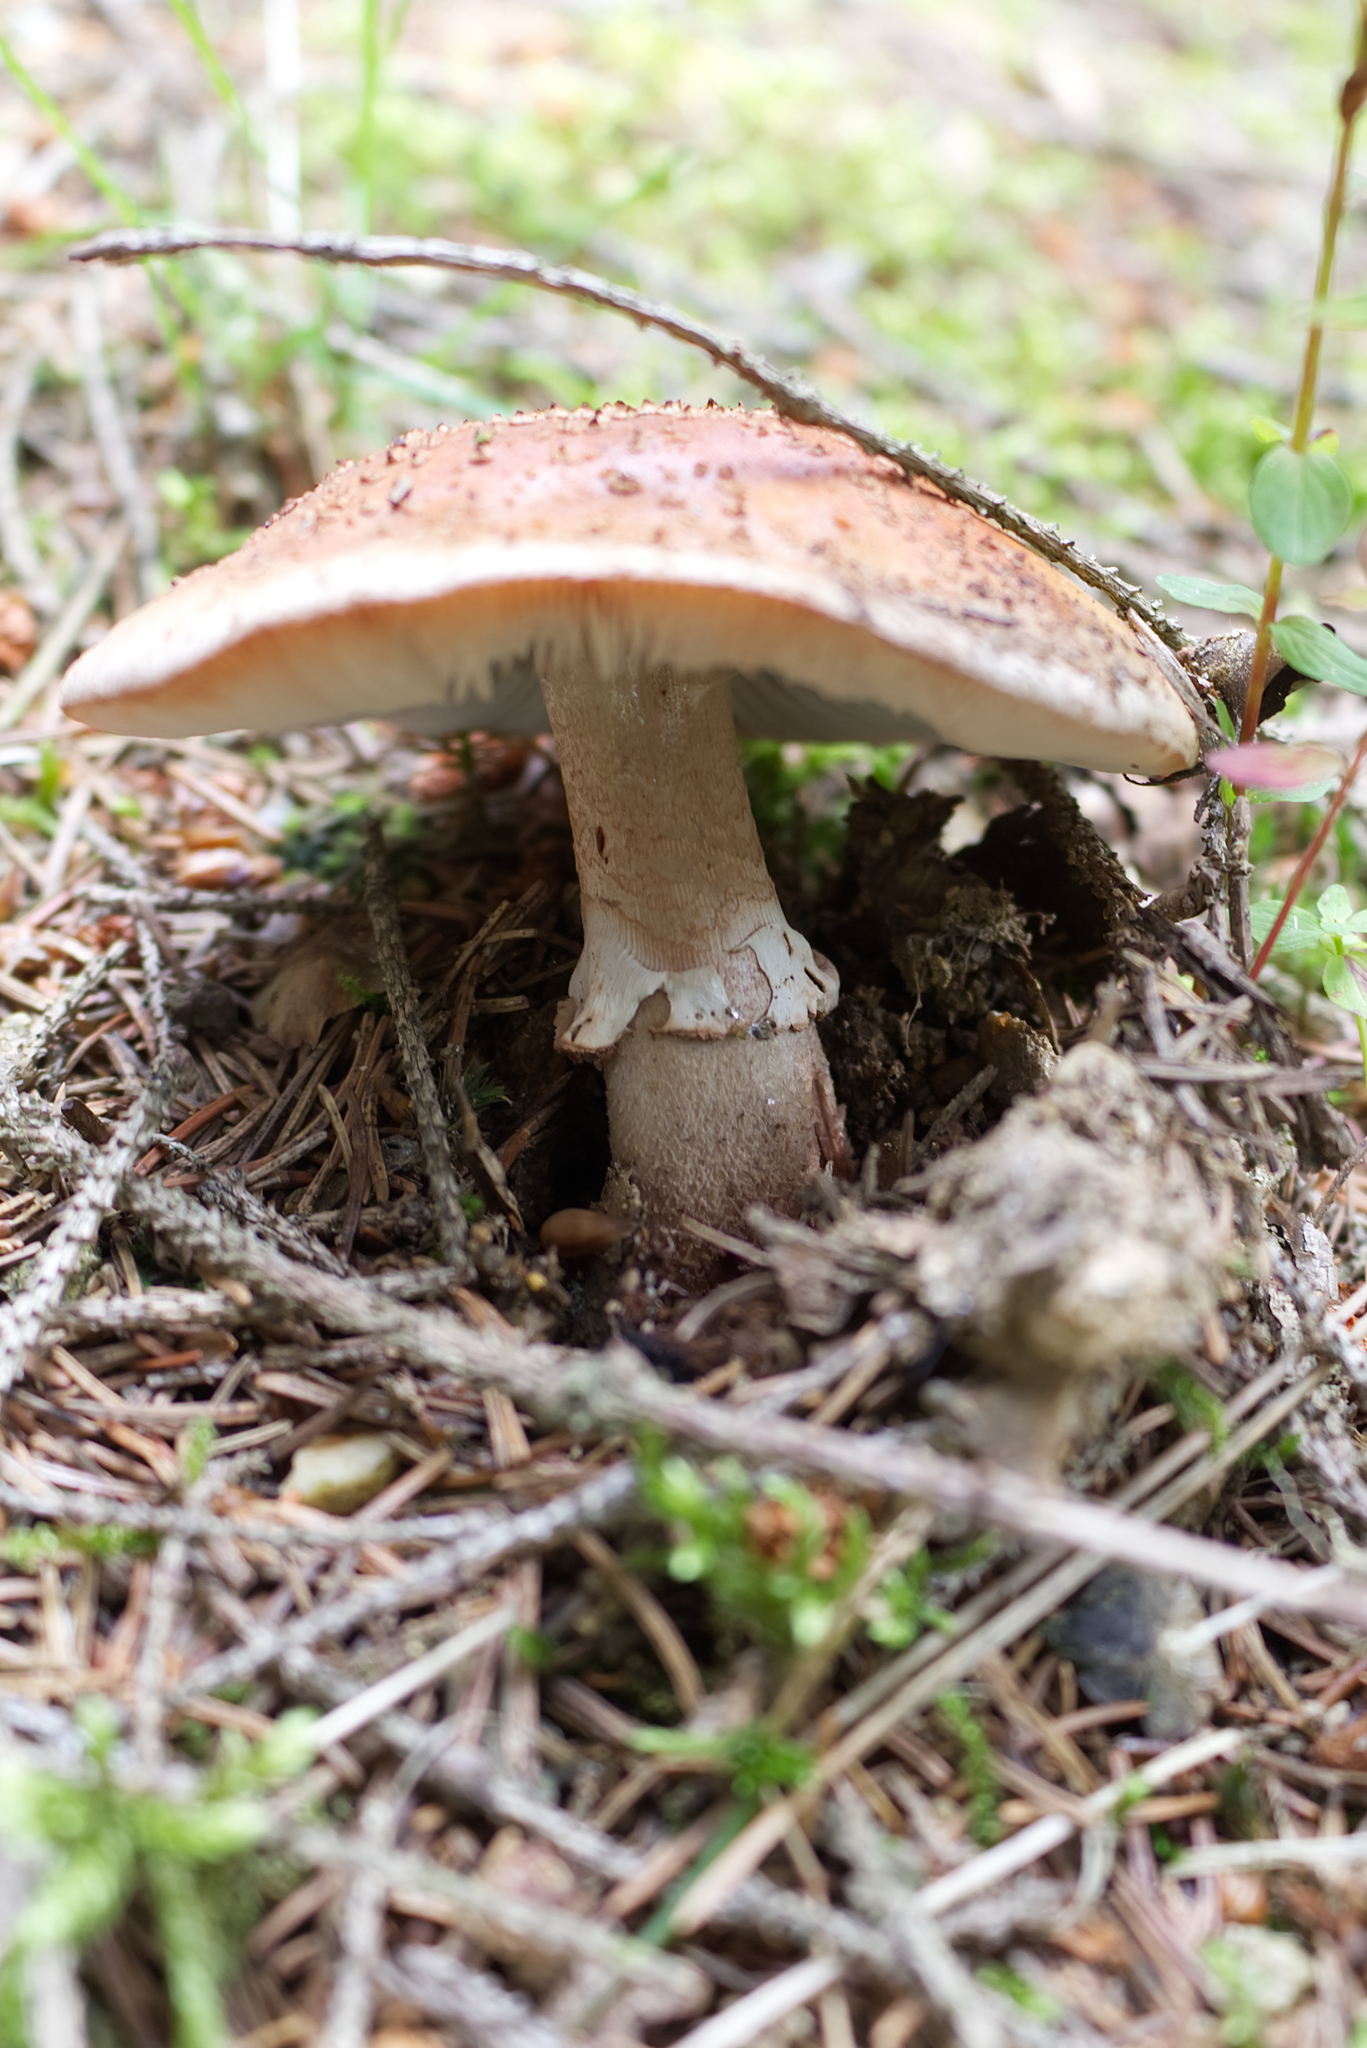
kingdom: Fungi
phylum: Basidiomycota
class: Agaricomycetes
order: Agaricales
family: Amanitaceae
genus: Amanita
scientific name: Amanita rubescens
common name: Blusher
